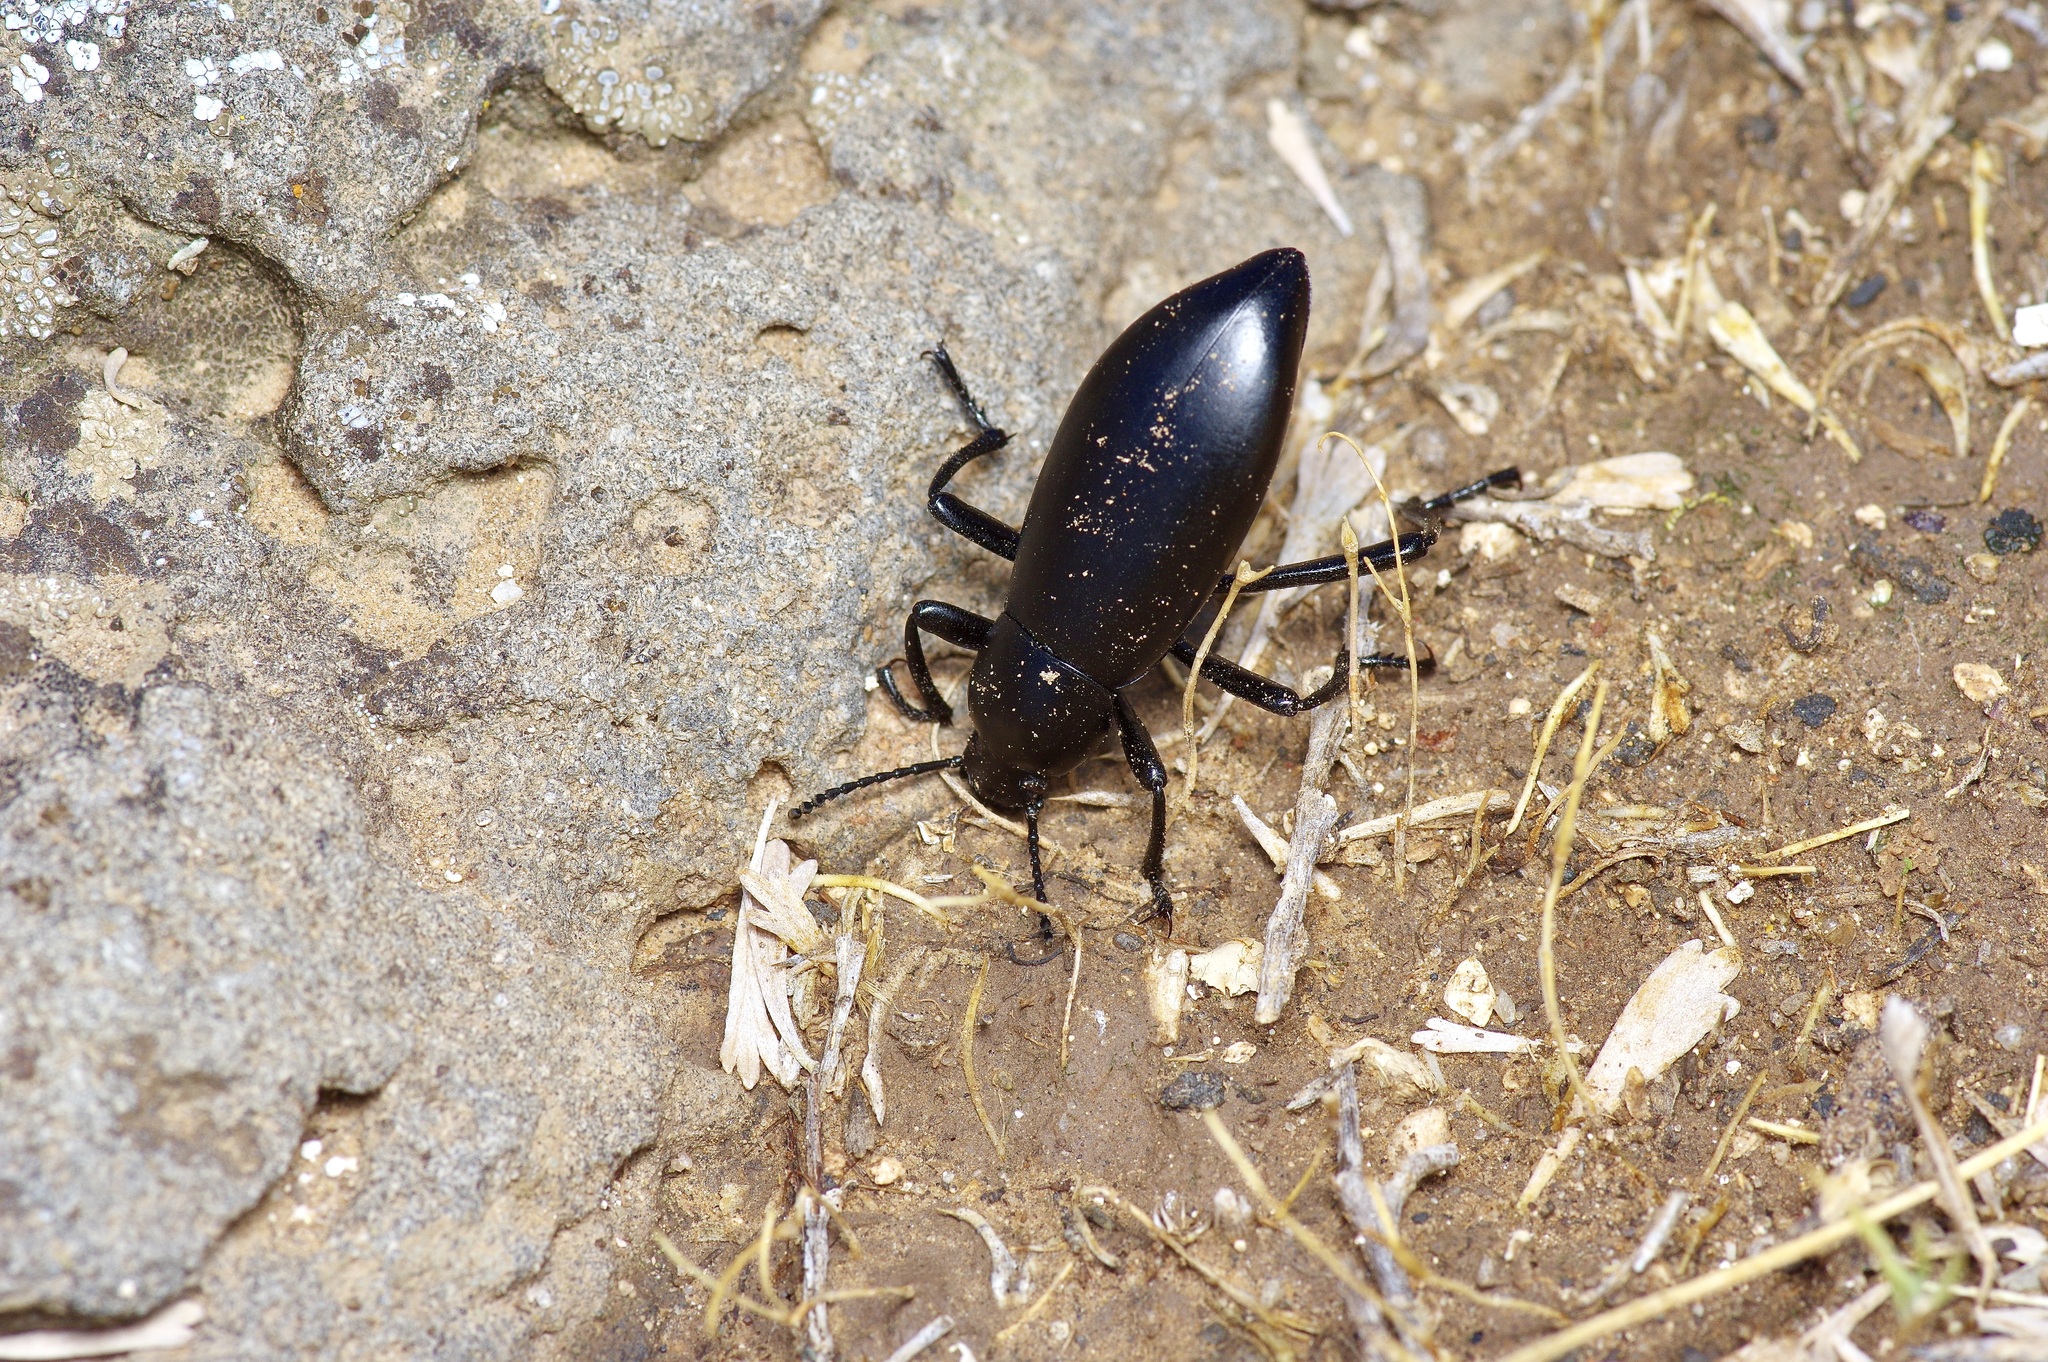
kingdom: Animalia
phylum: Arthropoda
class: Insecta
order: Coleoptera
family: Tenebrionidae
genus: Eleodes
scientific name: Eleodes longicollis
